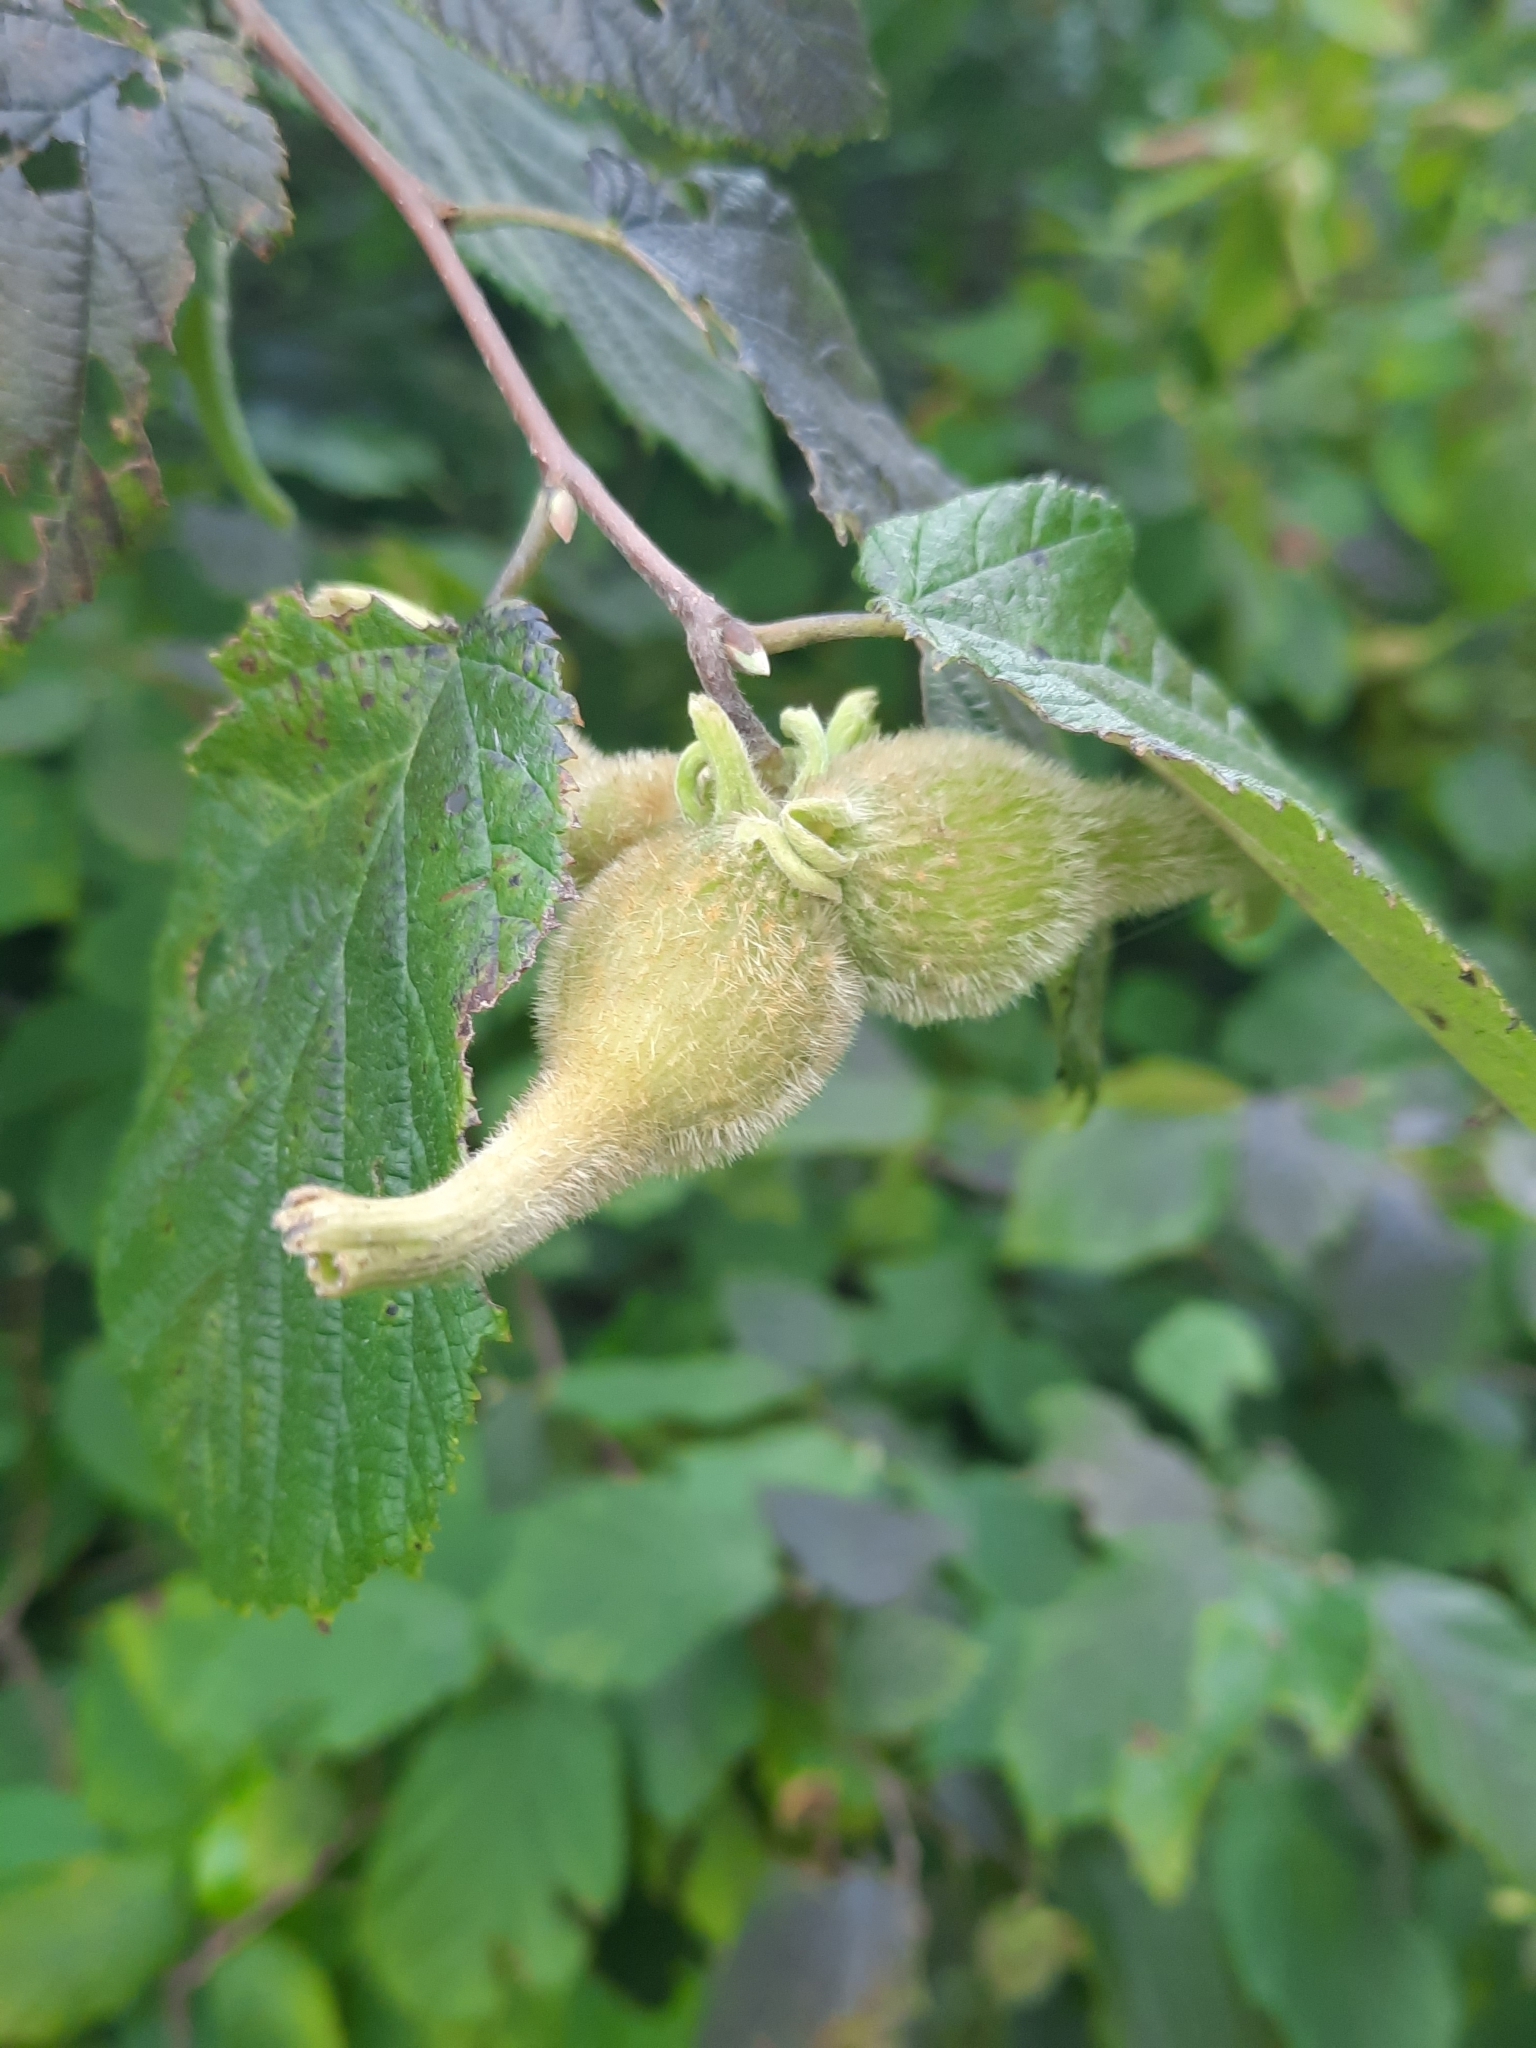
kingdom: Plantae
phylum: Tracheophyta
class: Magnoliopsida
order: Fagales
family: Betulaceae
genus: Corylus
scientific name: Corylus cornuta
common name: Beaked hazel
